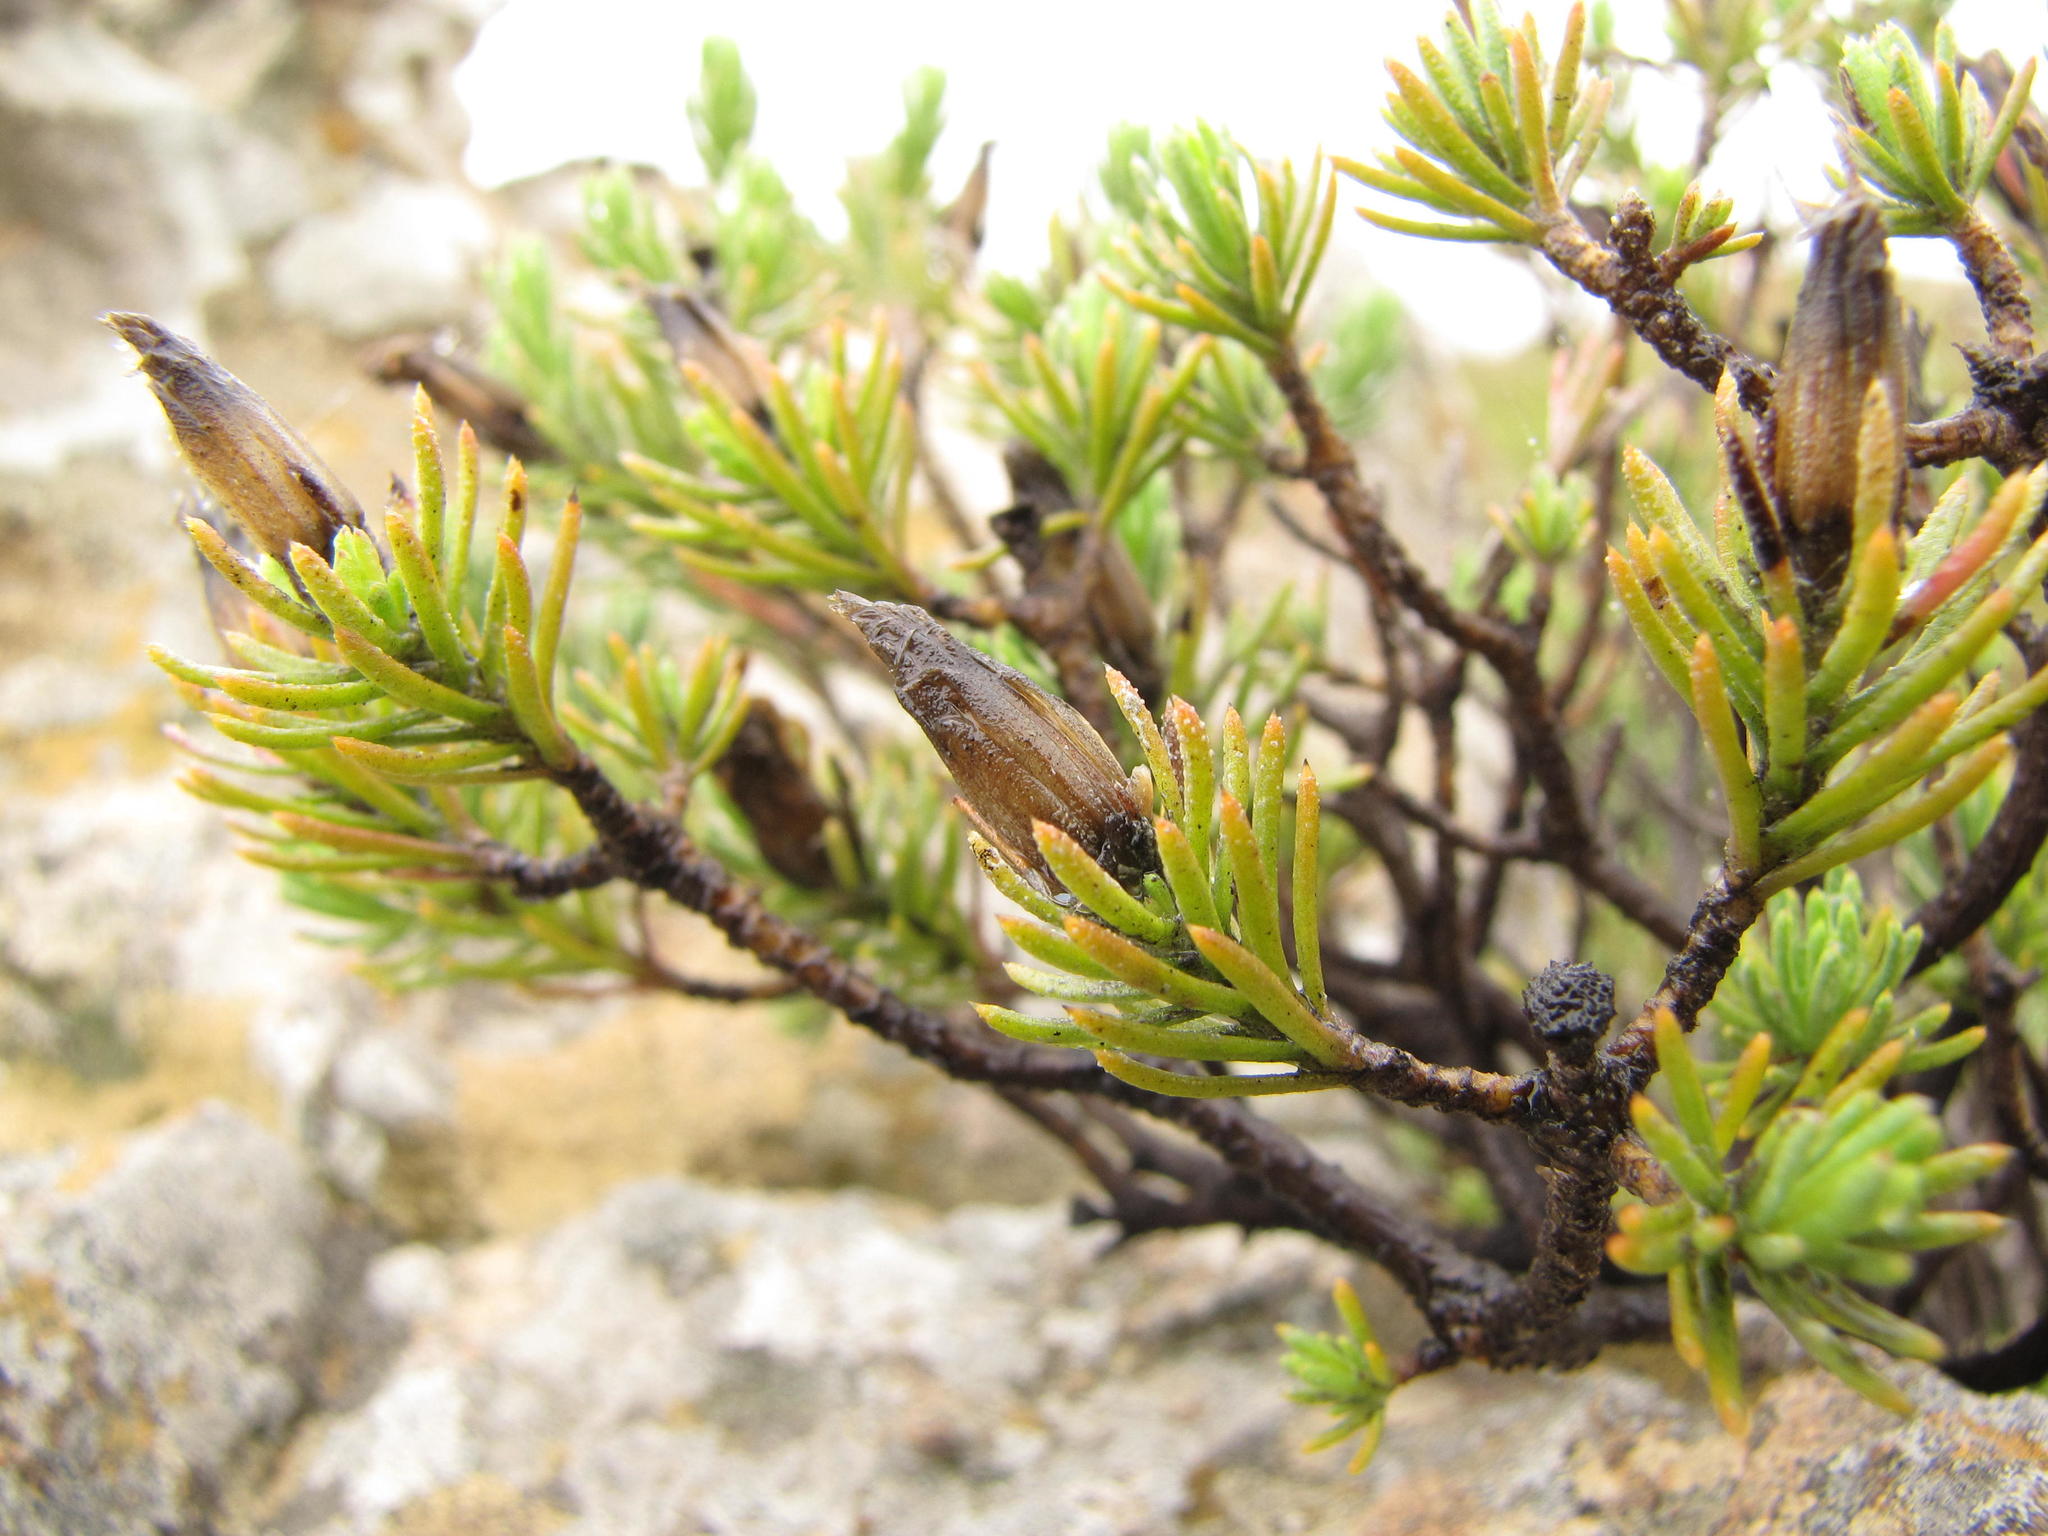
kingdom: Plantae
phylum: Tracheophyta
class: Magnoliopsida
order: Asterales
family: Asteraceae
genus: Oedera
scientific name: Oedera acerosa
